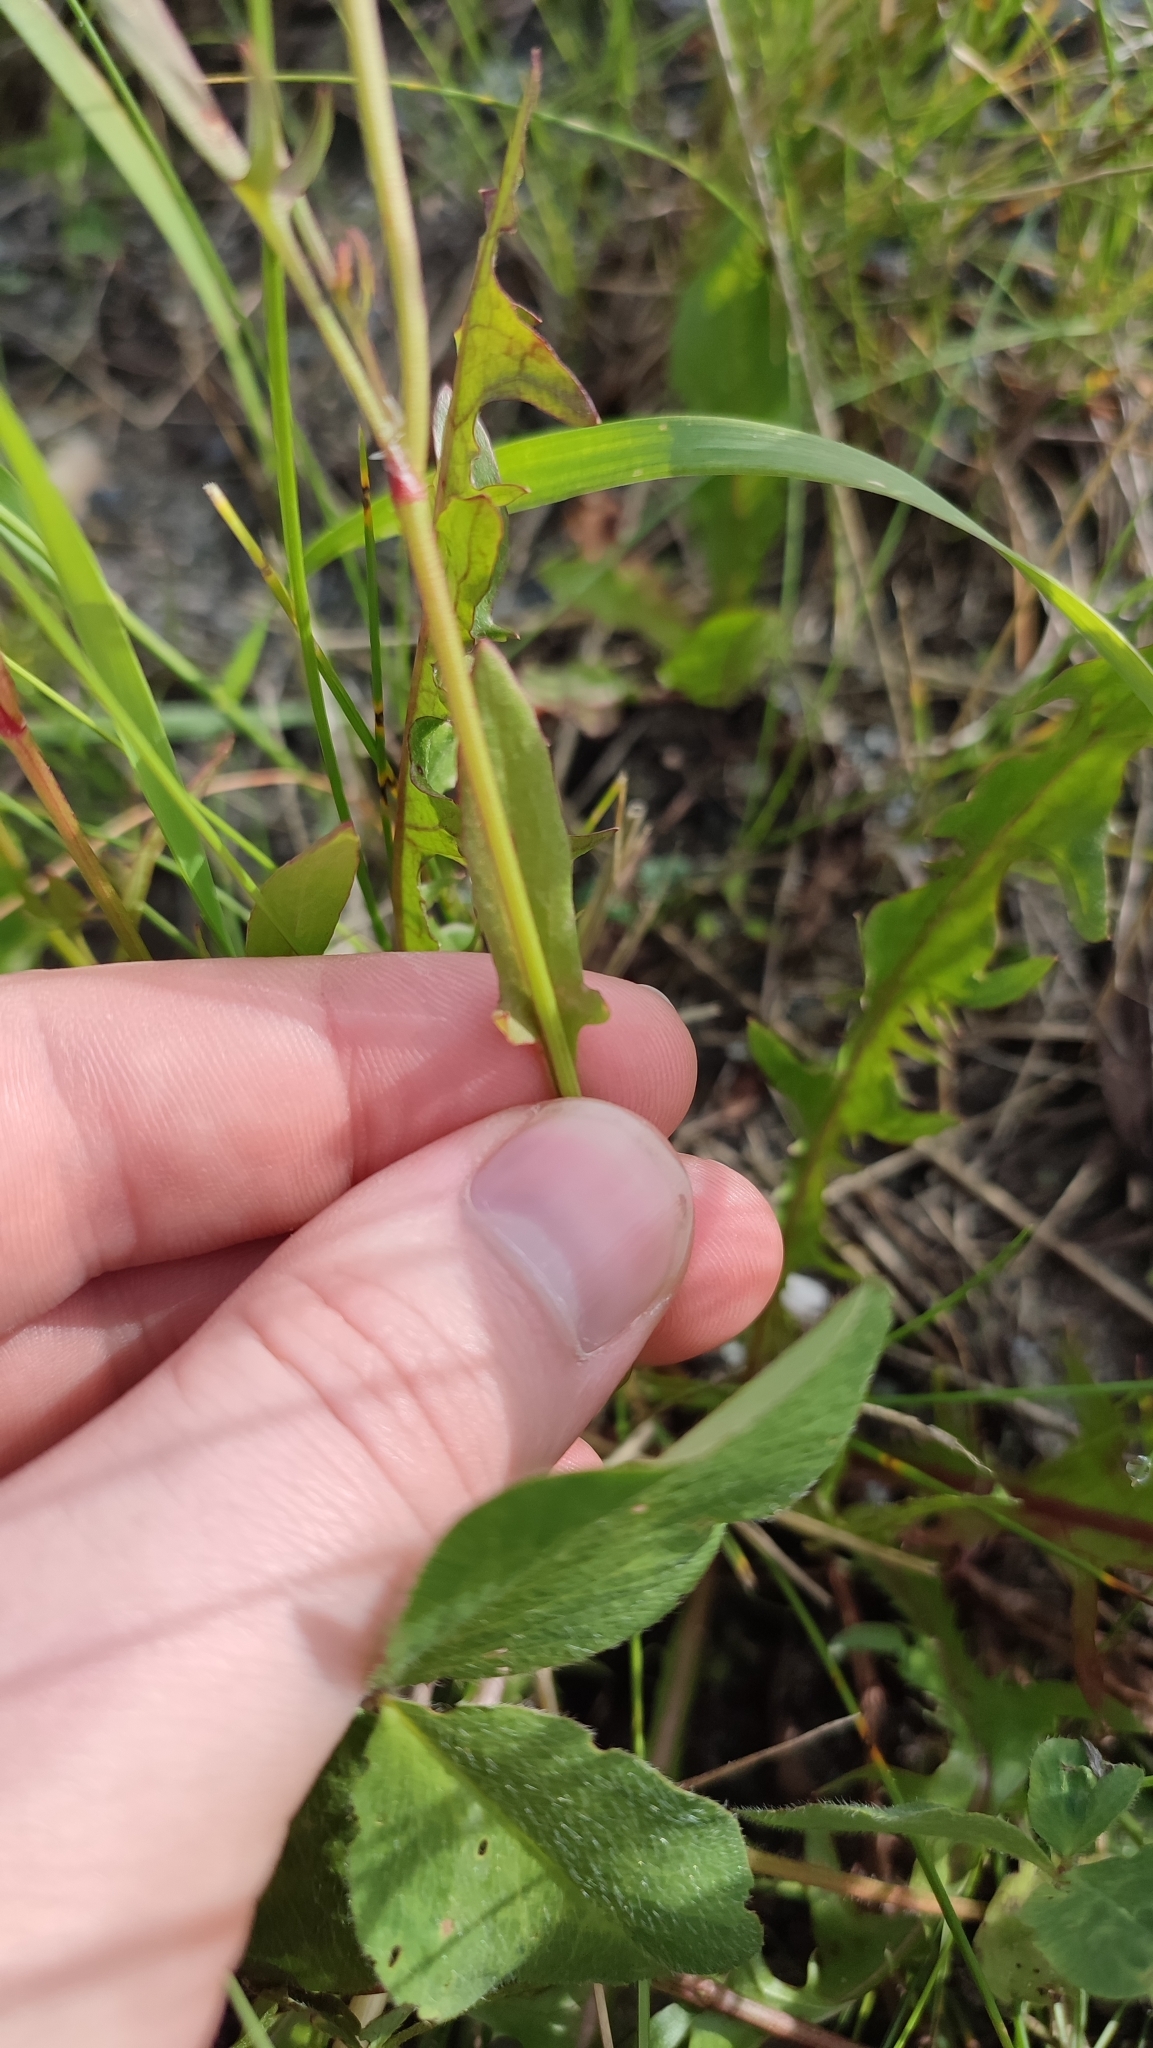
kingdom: Plantae
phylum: Tracheophyta
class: Magnoliopsida
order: Caryophyllales
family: Polygonaceae
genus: Rumex
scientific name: Rumex acetosella
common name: Common sheep sorrel
